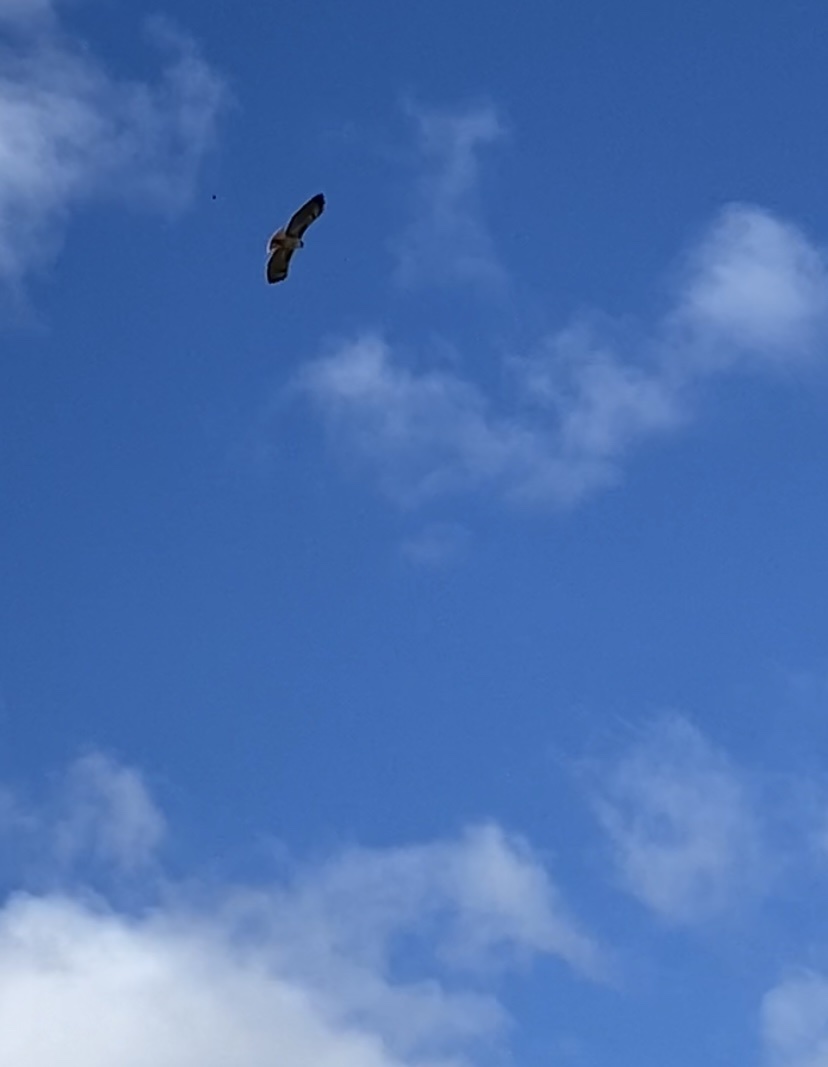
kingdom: Animalia
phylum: Chordata
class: Aves
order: Accipitriformes
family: Accipitridae
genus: Buteo
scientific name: Buteo jamaicensis
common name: Red-tailed hawk
